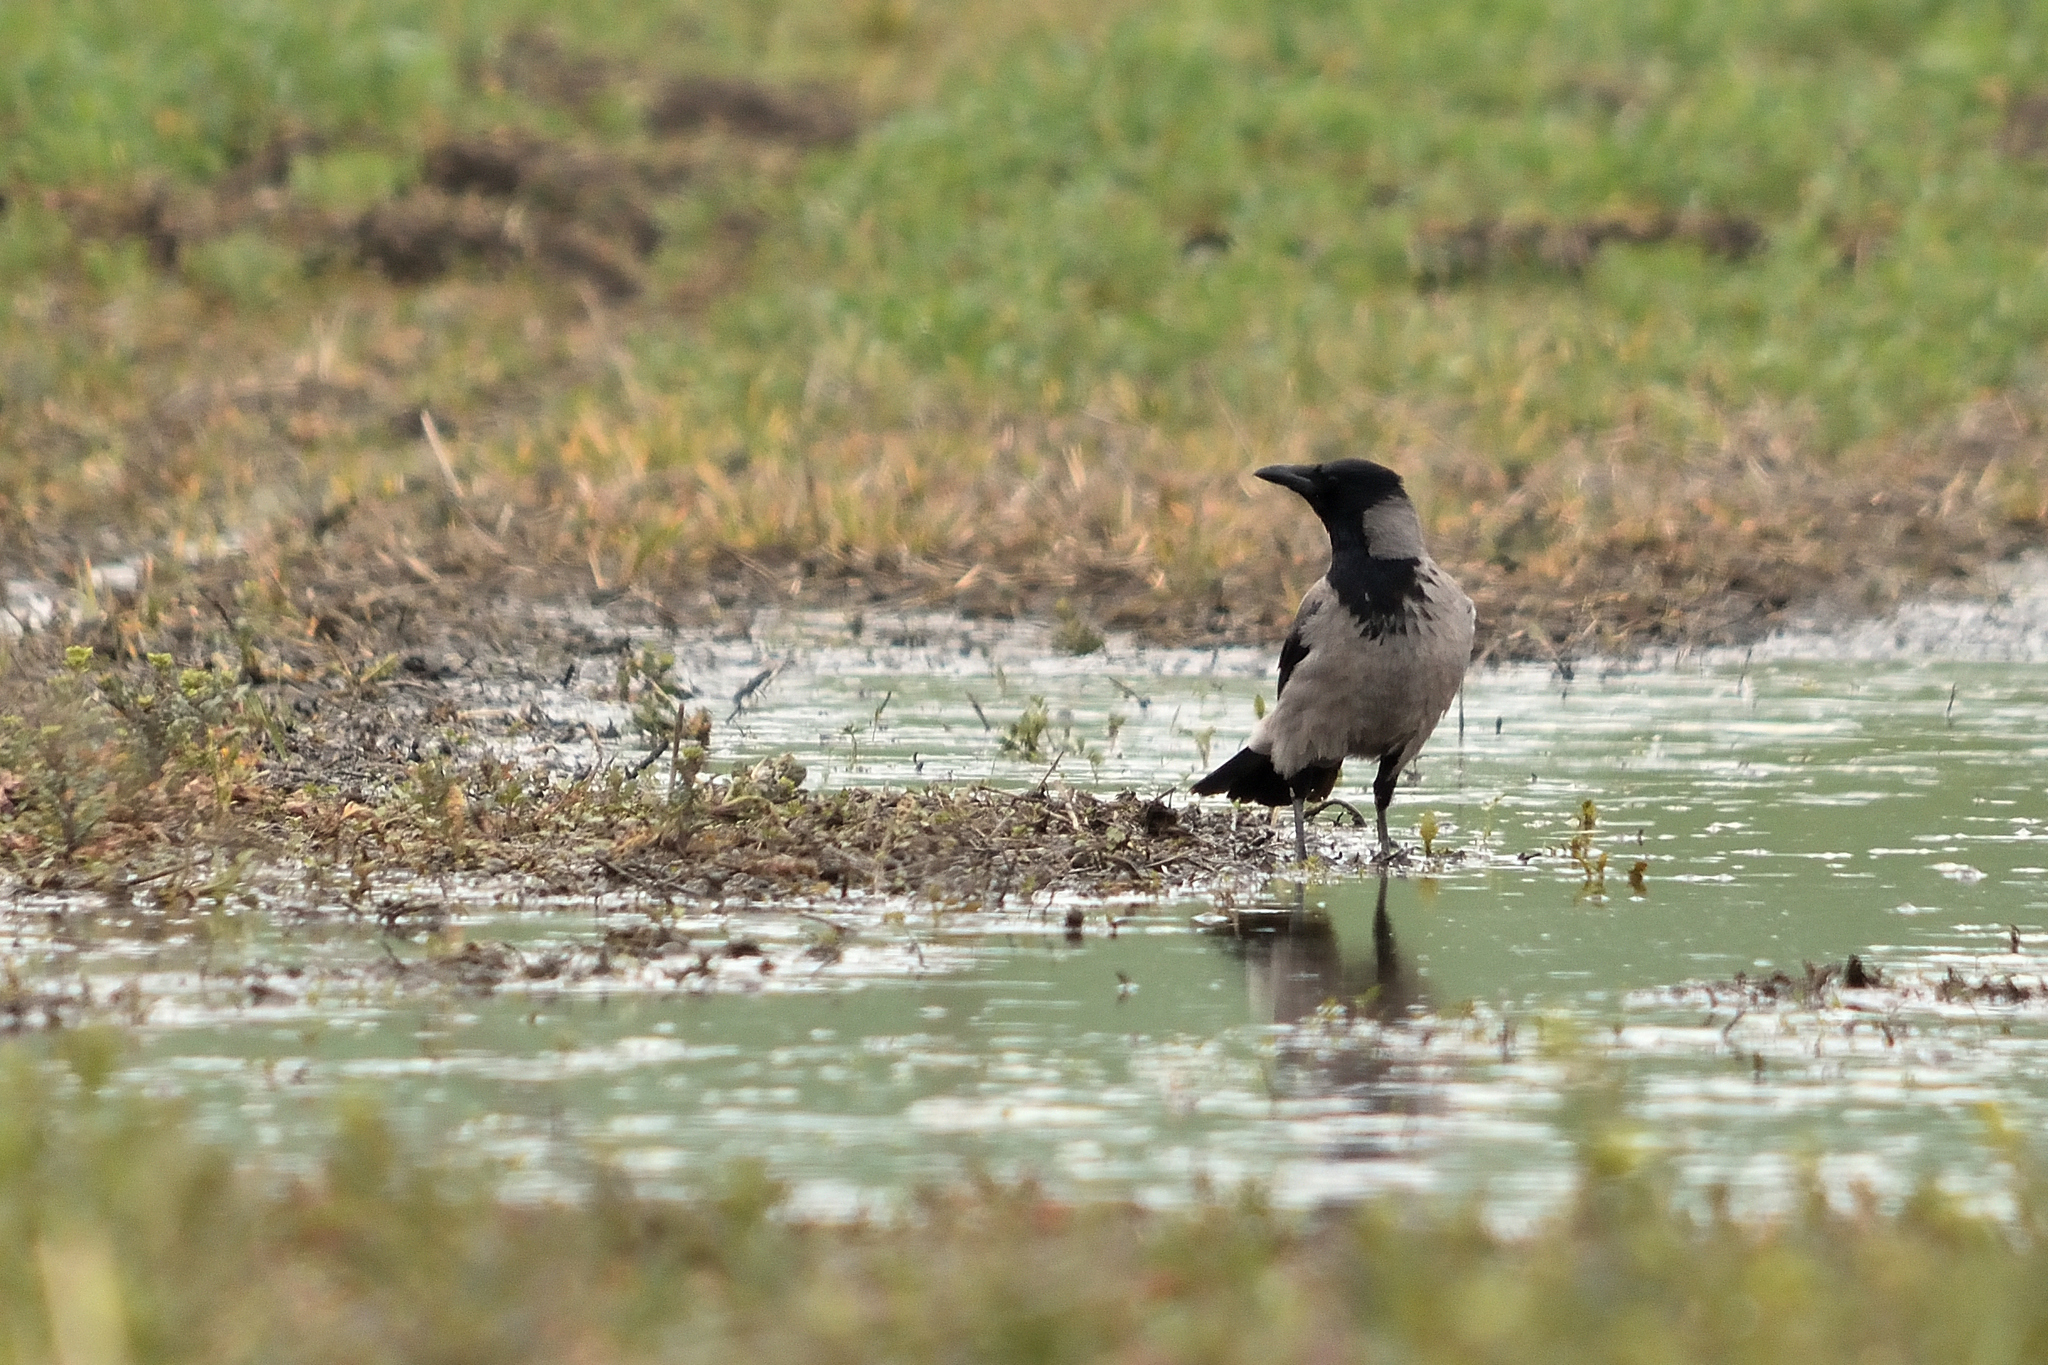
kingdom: Animalia
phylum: Chordata
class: Aves
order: Passeriformes
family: Corvidae
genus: Corvus
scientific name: Corvus cornix
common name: Hooded crow
